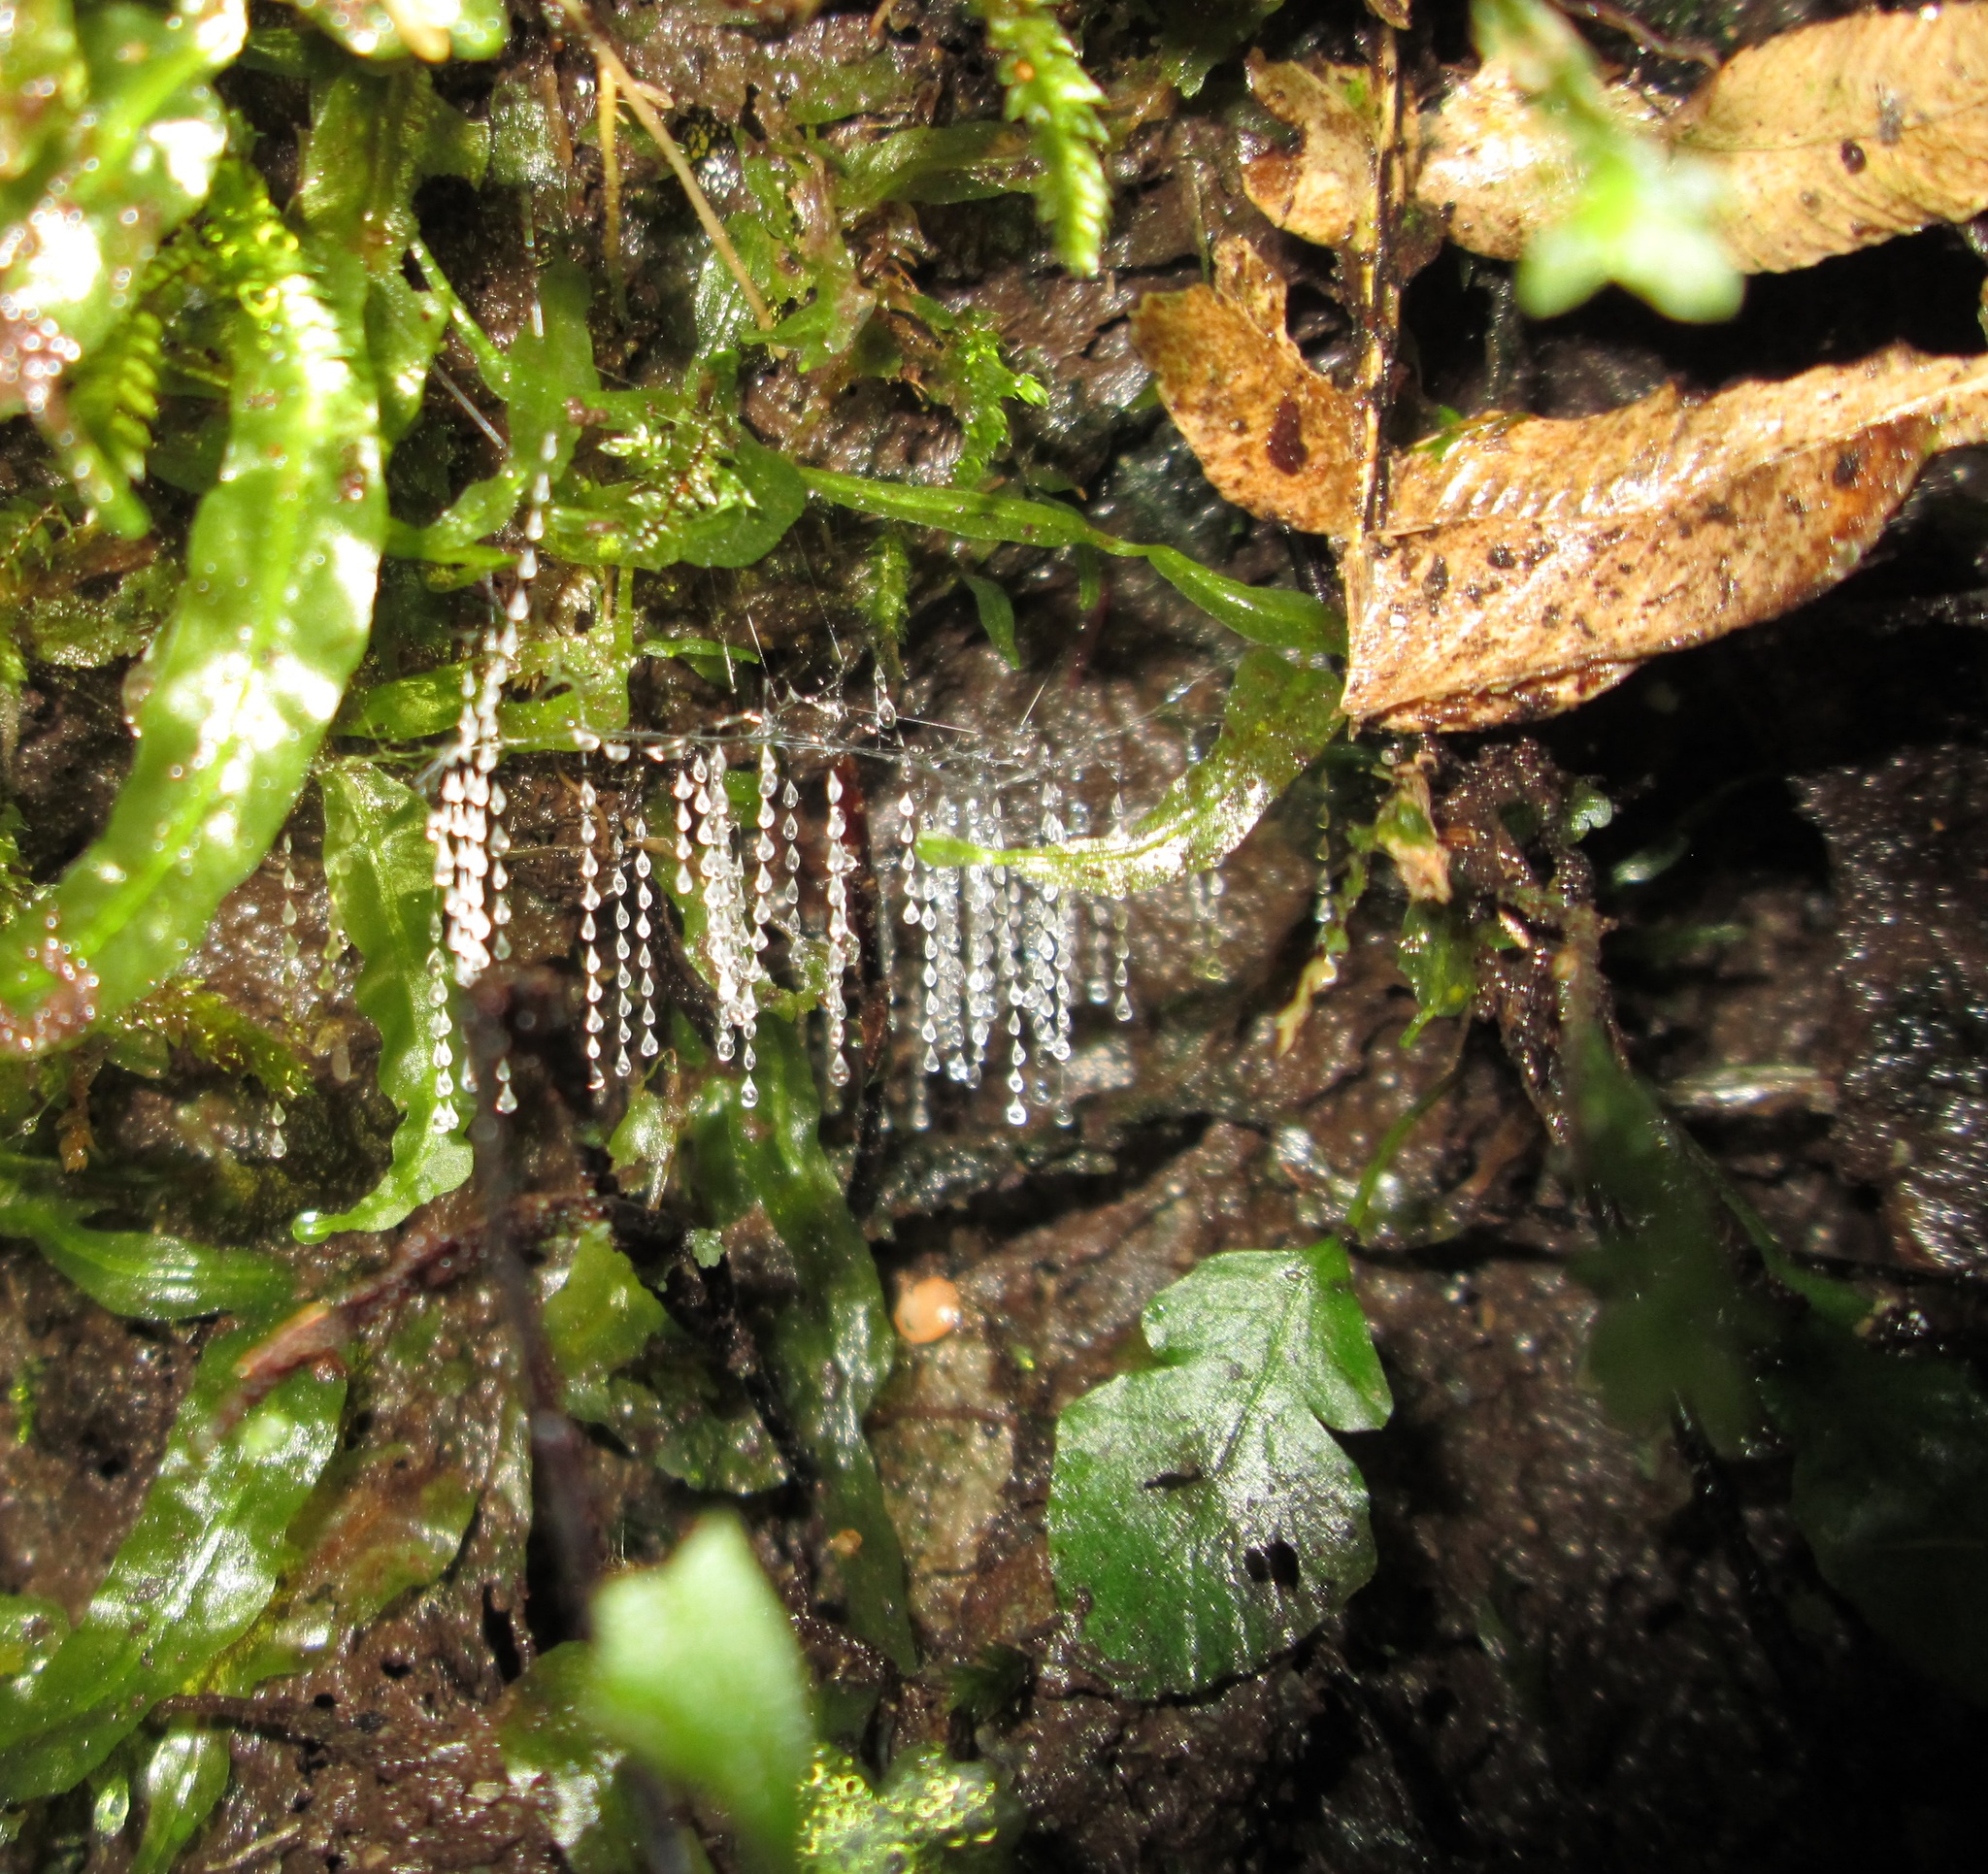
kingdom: Animalia
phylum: Arthropoda
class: Insecta
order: Diptera
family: Keroplatidae
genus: Arachnocampa
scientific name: Arachnocampa luminosa
